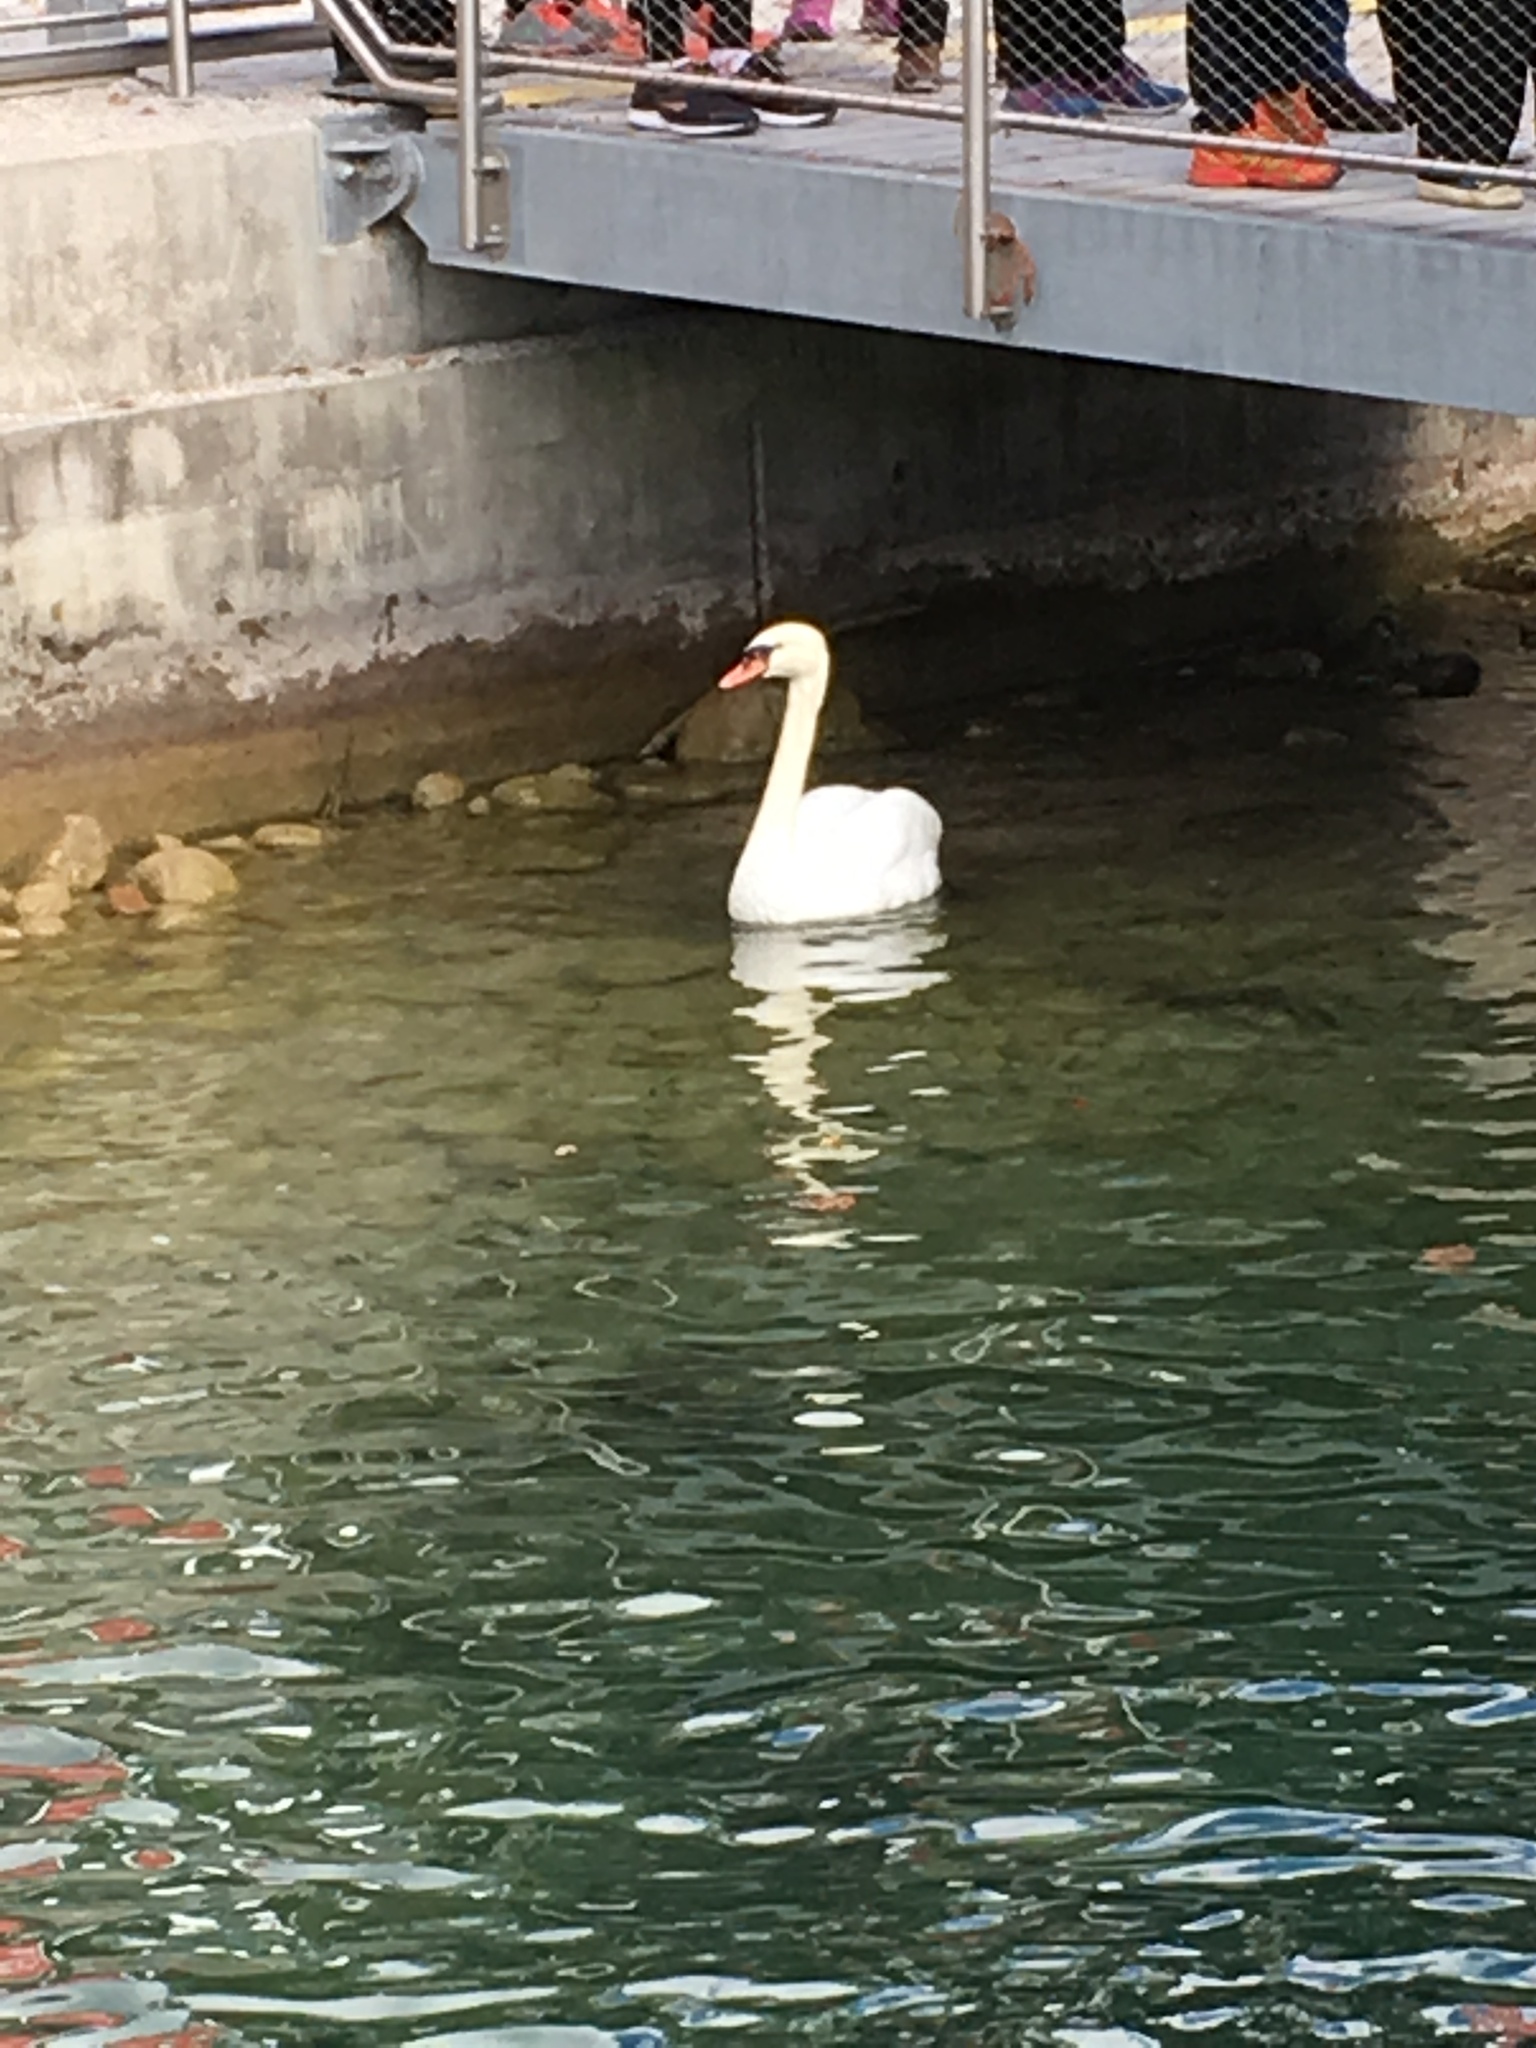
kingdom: Animalia
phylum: Chordata
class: Aves
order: Anseriformes
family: Anatidae
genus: Cygnus
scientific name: Cygnus olor
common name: Mute swan
